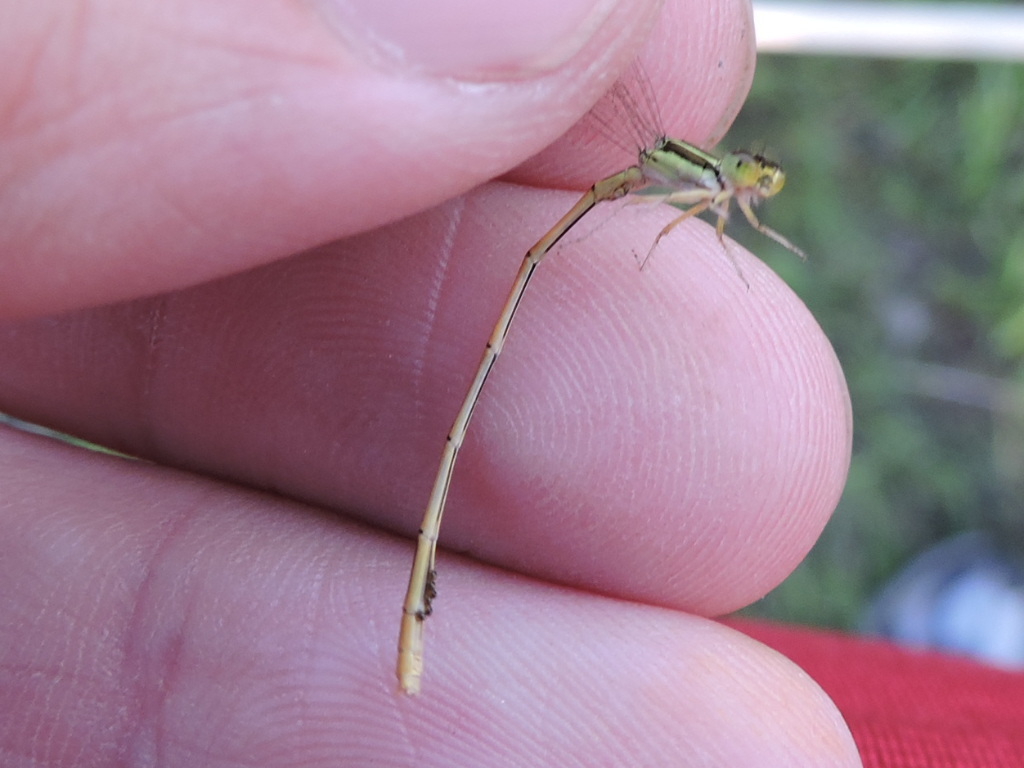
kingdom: Animalia
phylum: Arthropoda
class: Insecta
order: Odonata
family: Coenagrionidae
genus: Ischnura
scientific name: Ischnura hastata
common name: Citrine forktail
